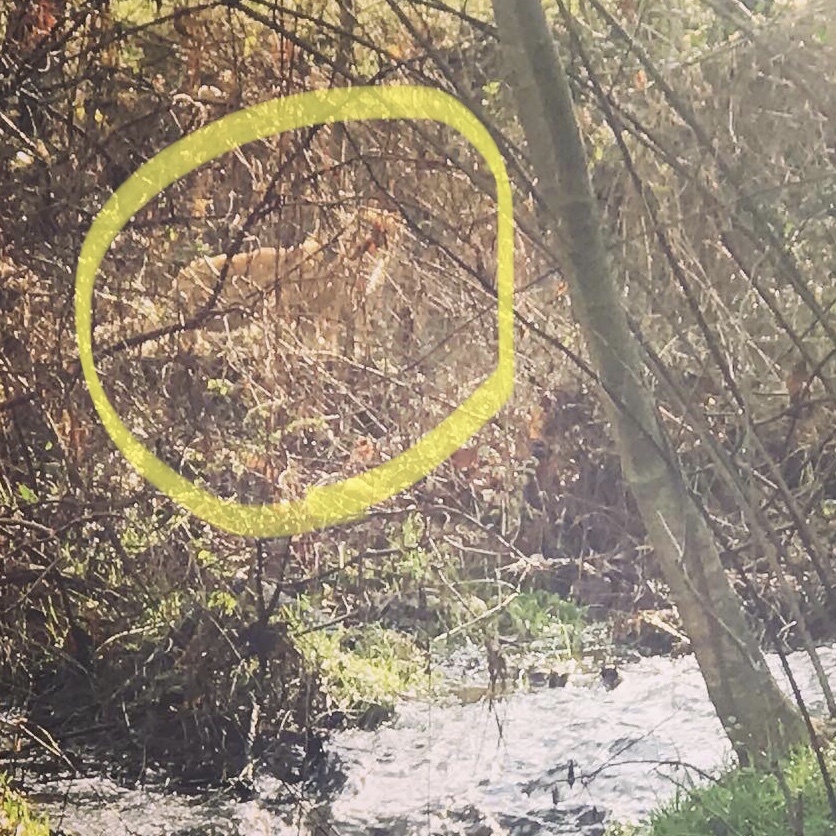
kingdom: Animalia
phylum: Chordata
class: Mammalia
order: Carnivora
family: Felidae
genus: Felis
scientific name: Felis catus
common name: Domestic cat
